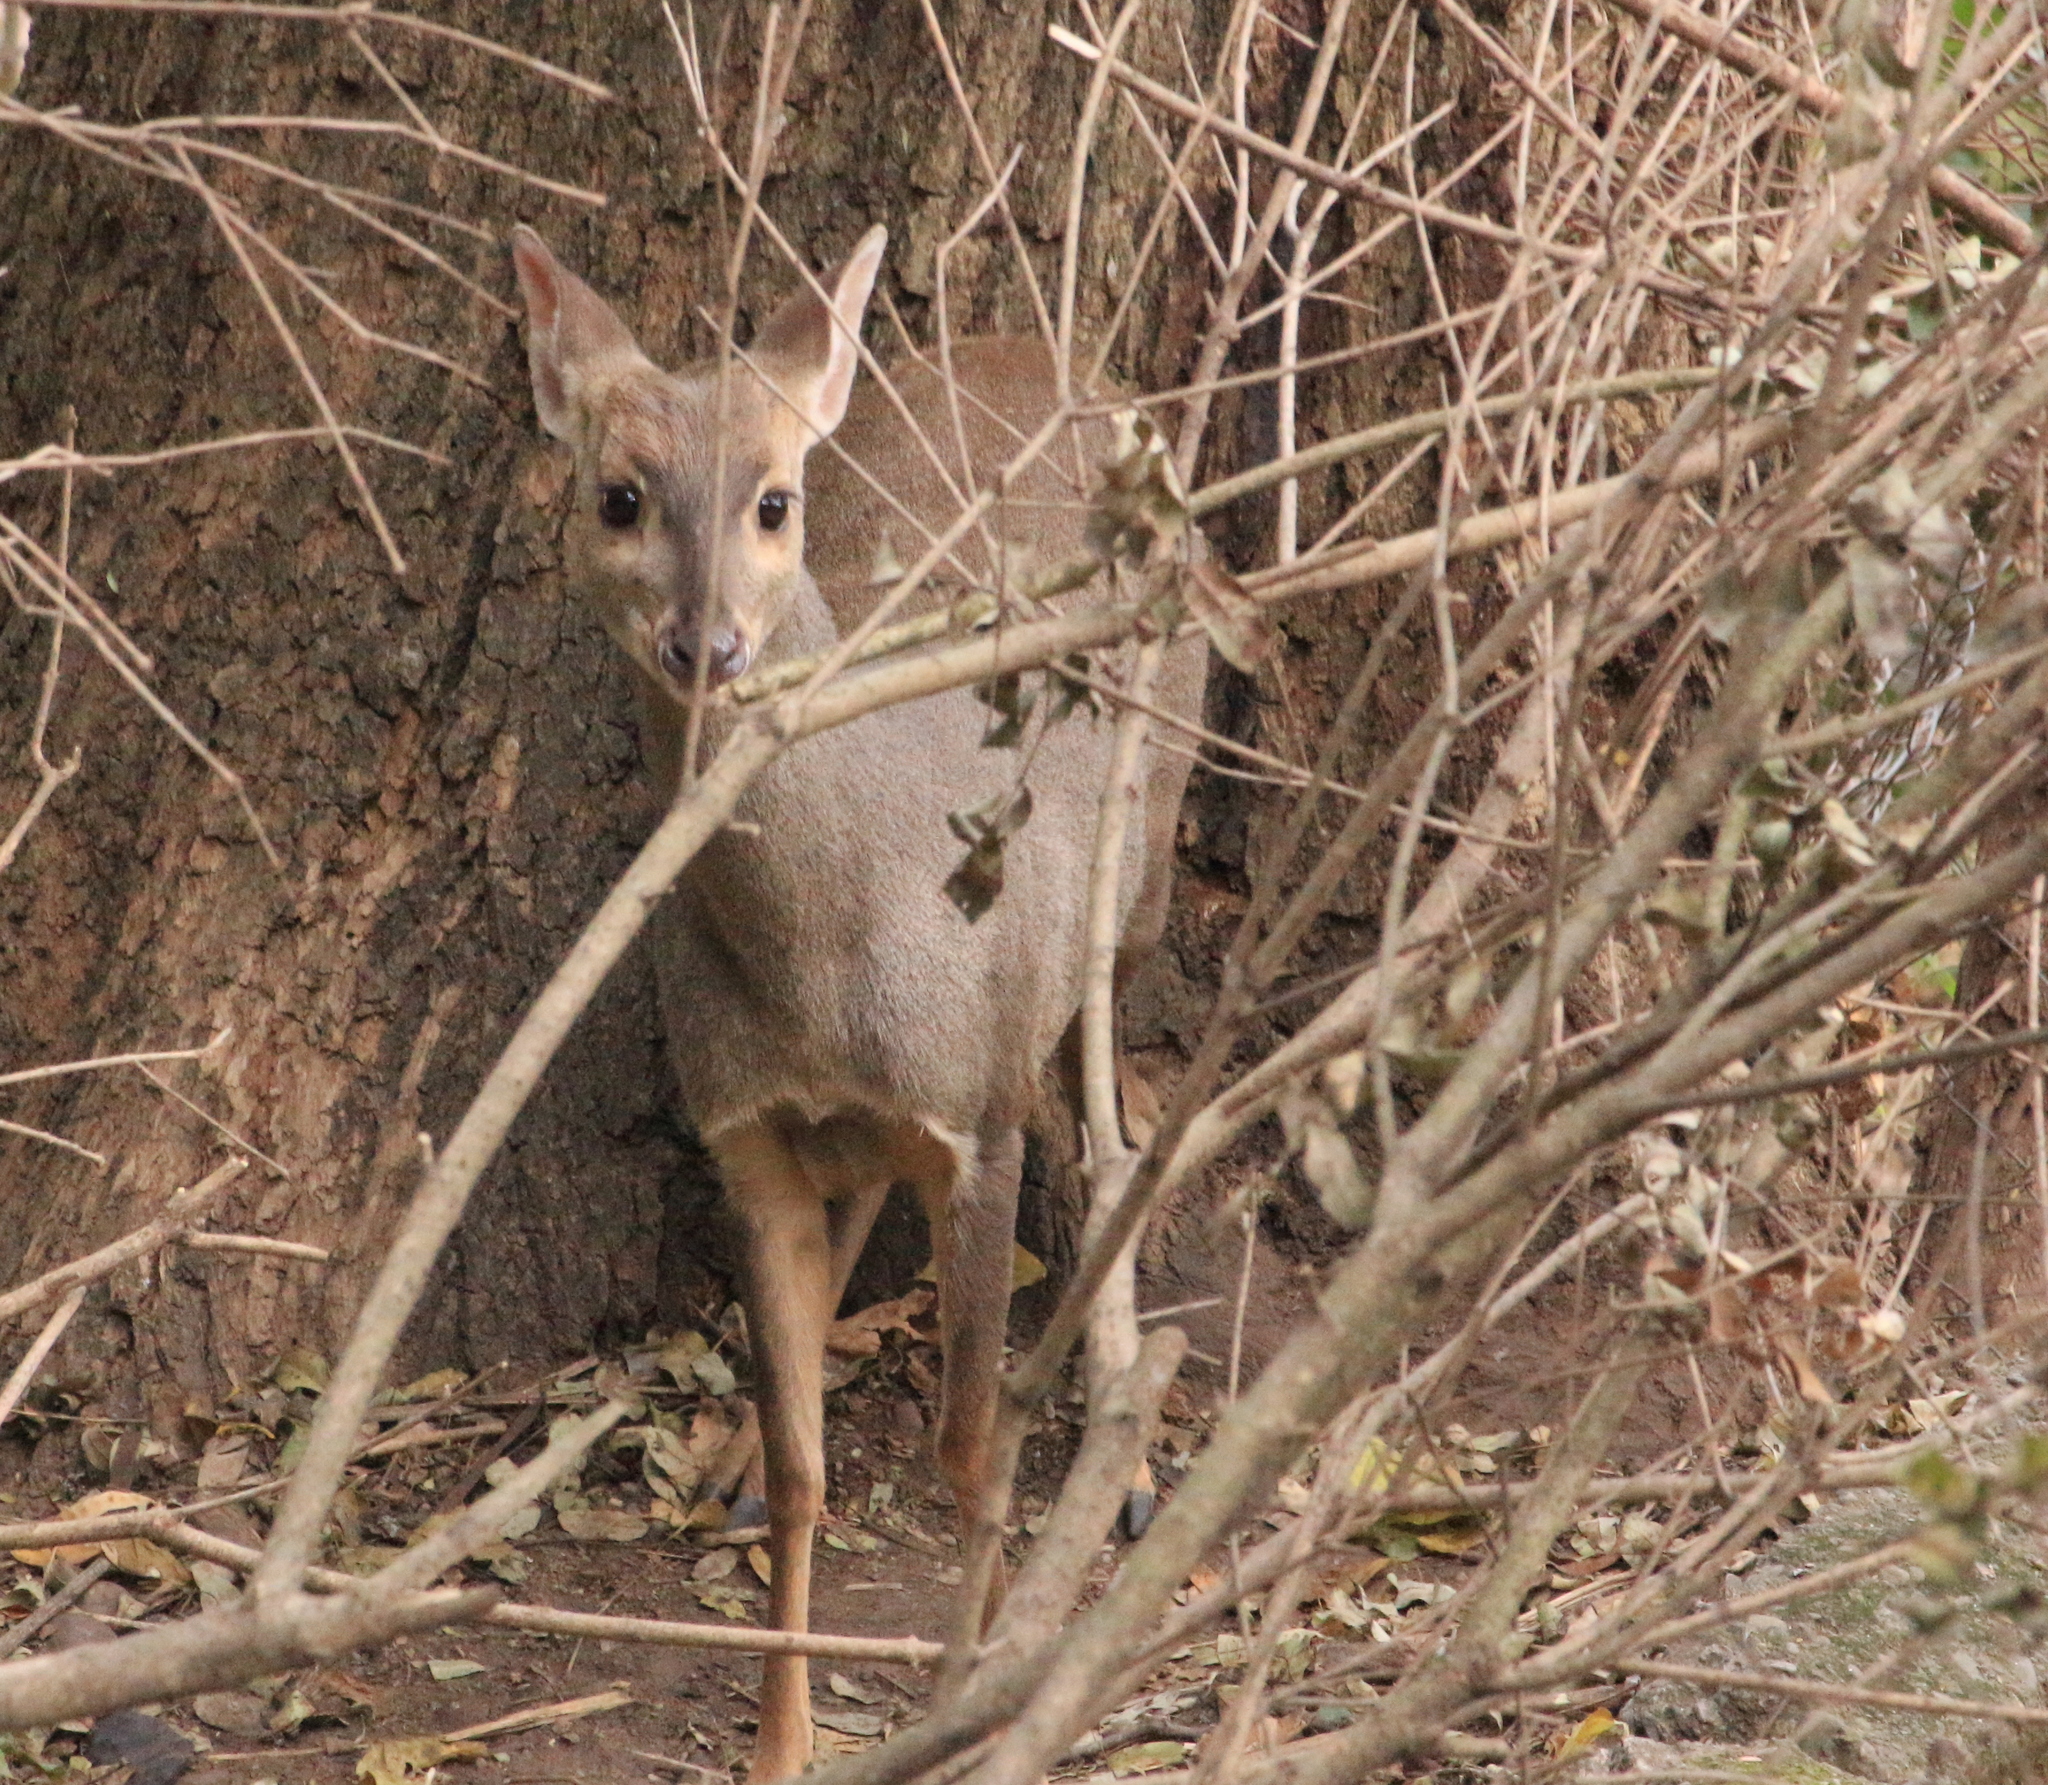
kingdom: Animalia
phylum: Chordata
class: Mammalia
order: Artiodactyla
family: Cervidae
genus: Mazama
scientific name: Mazama gouazoubira
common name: Gray brocket
